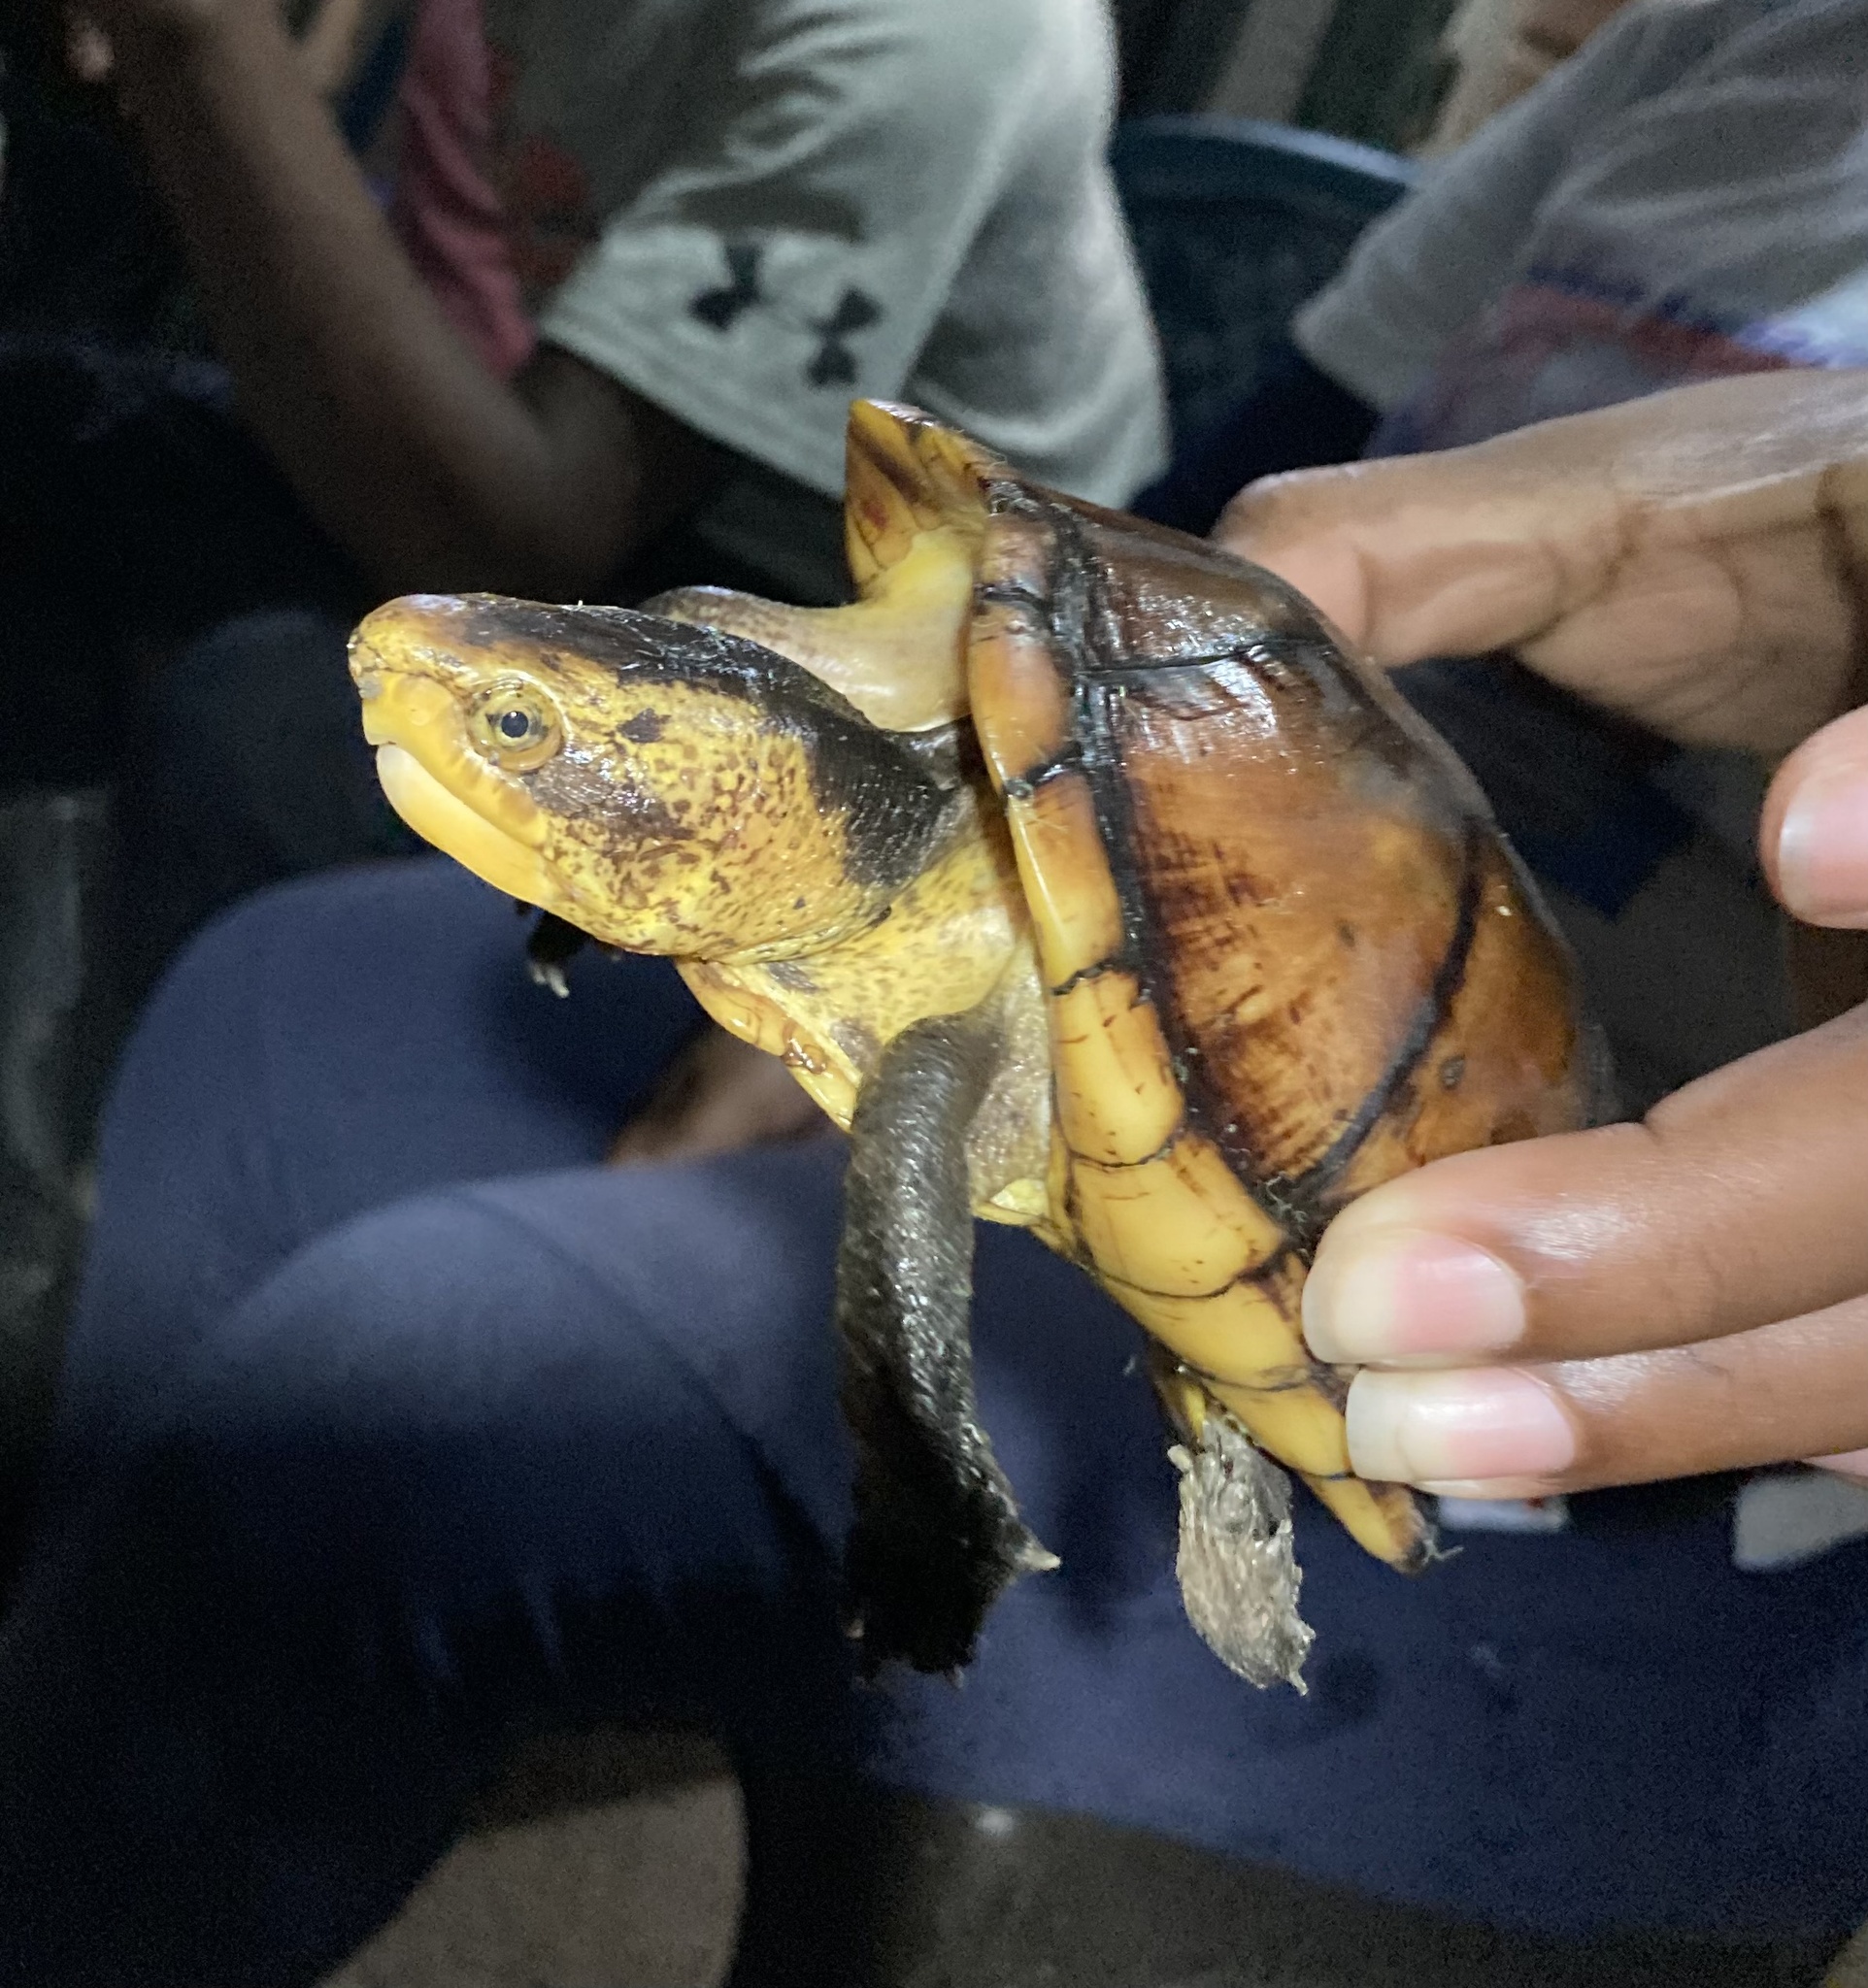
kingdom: Animalia
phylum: Chordata
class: Testudines
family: Kinosternidae
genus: Kinosternon
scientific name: Kinosternon leucostomum
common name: White-lipped mud turtle
